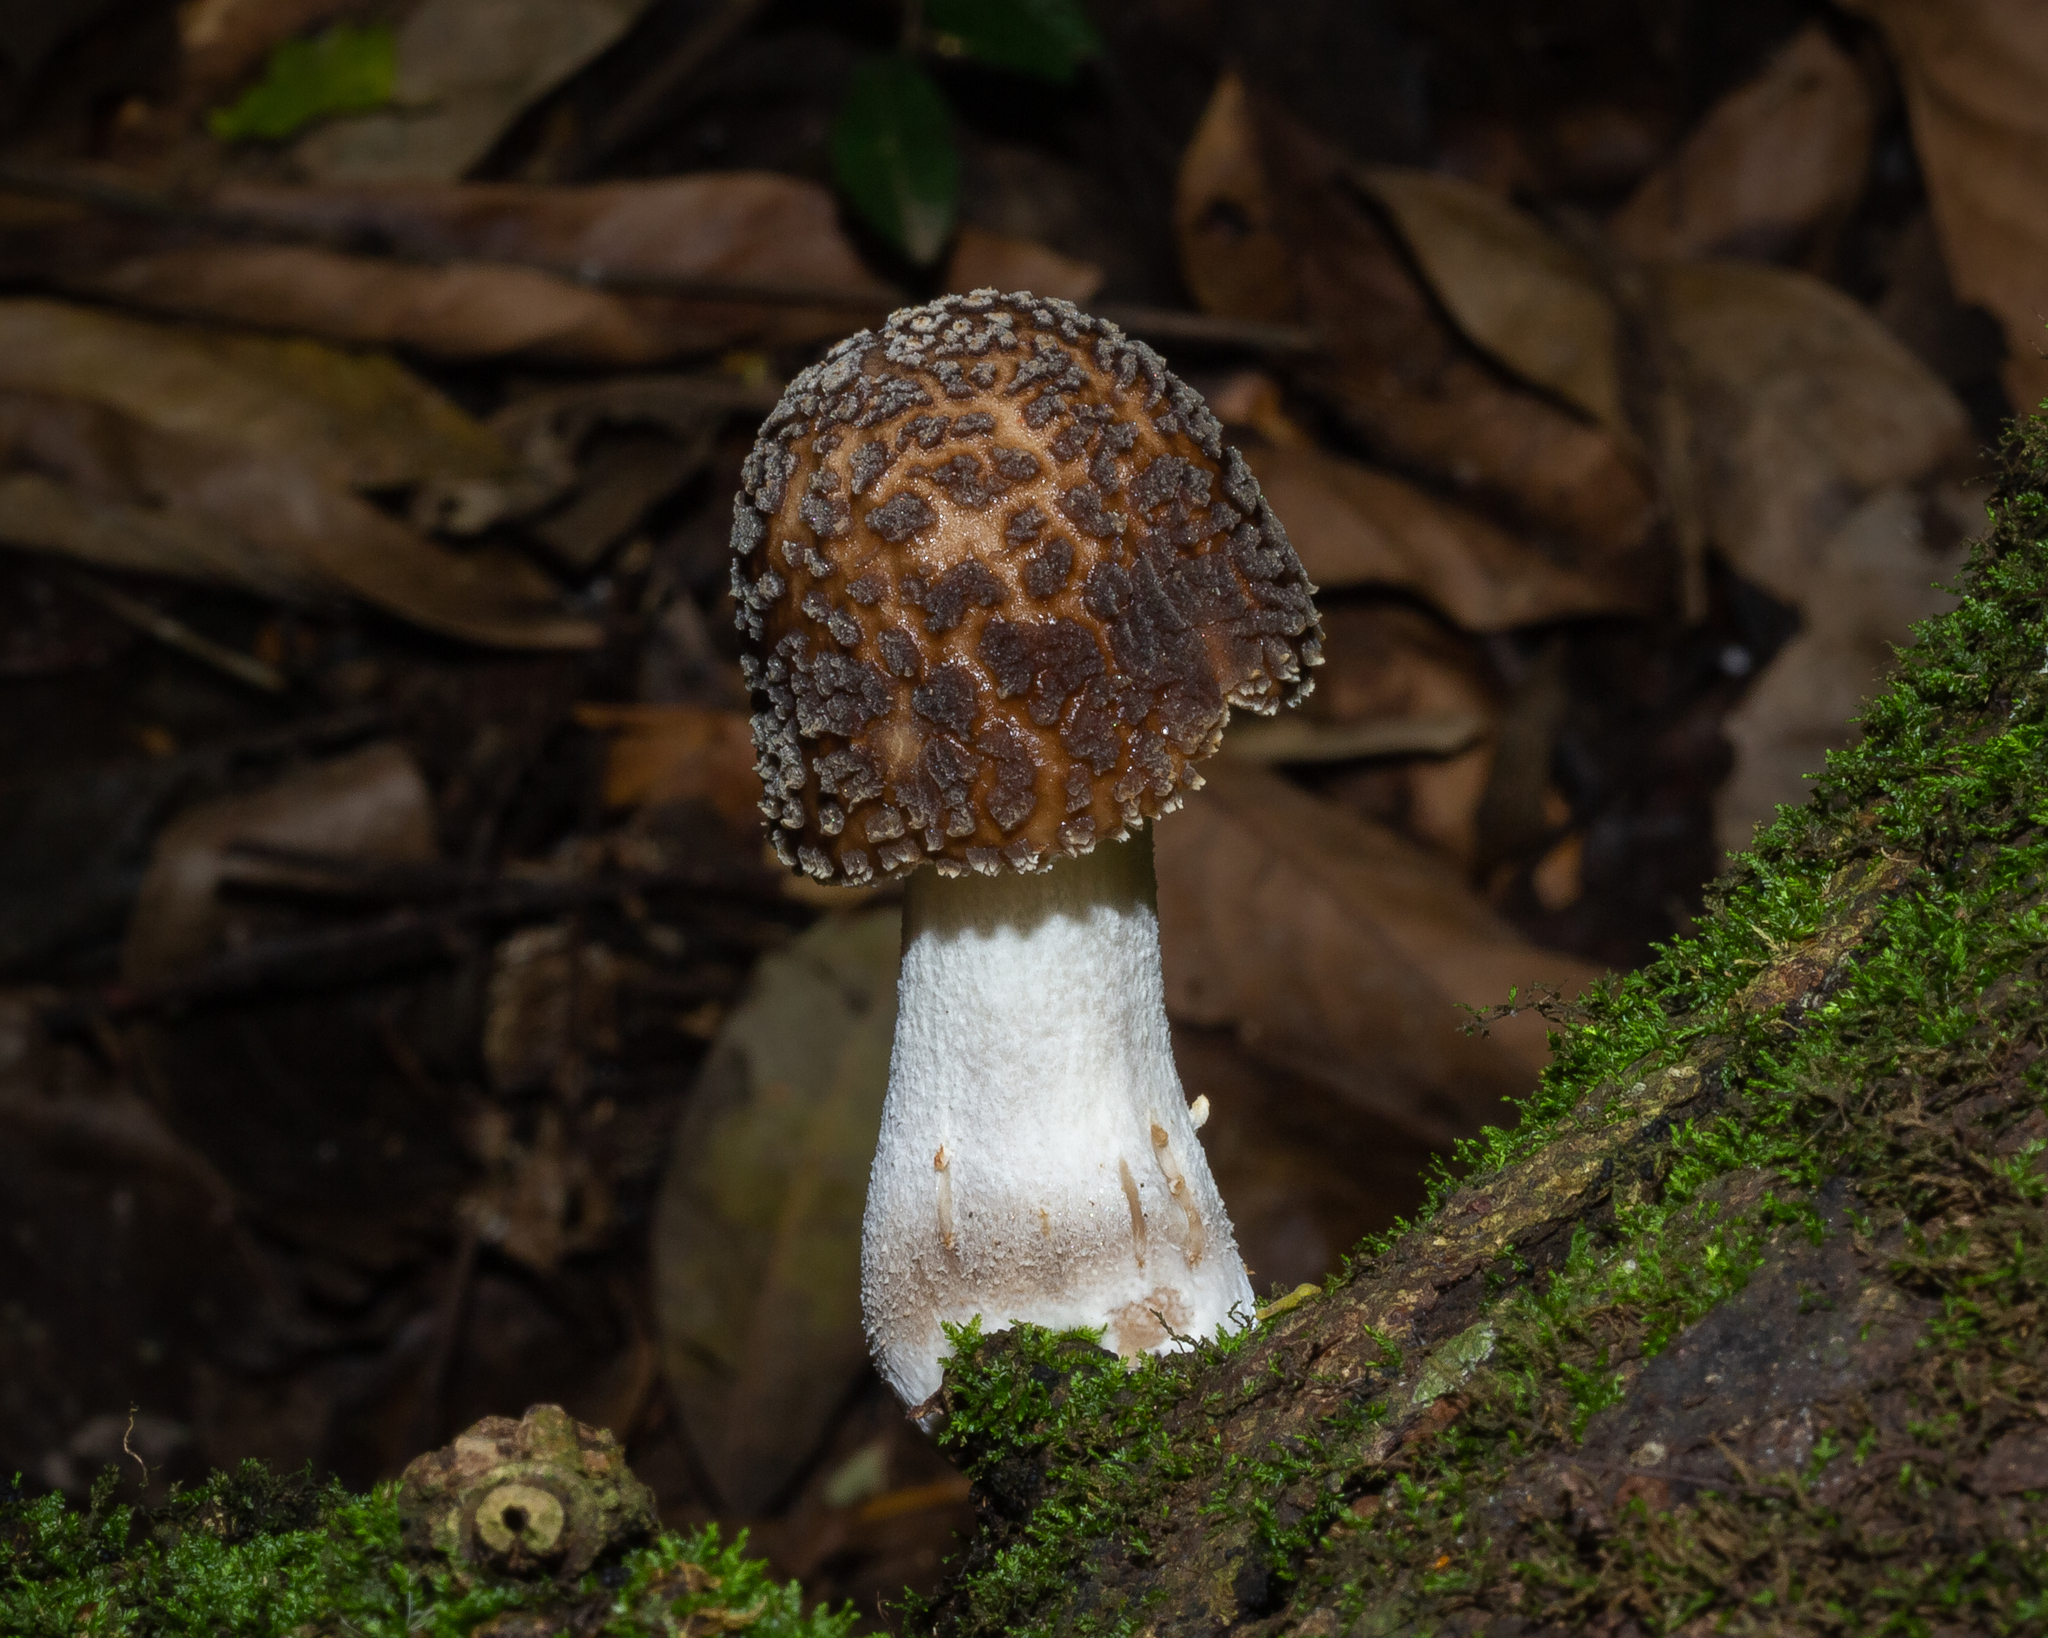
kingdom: Fungi
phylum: Basidiomycota
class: Agaricomycetes
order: Agaricales
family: Physalacriaceae
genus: Oudemansiella
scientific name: Oudemansiella cubensis
